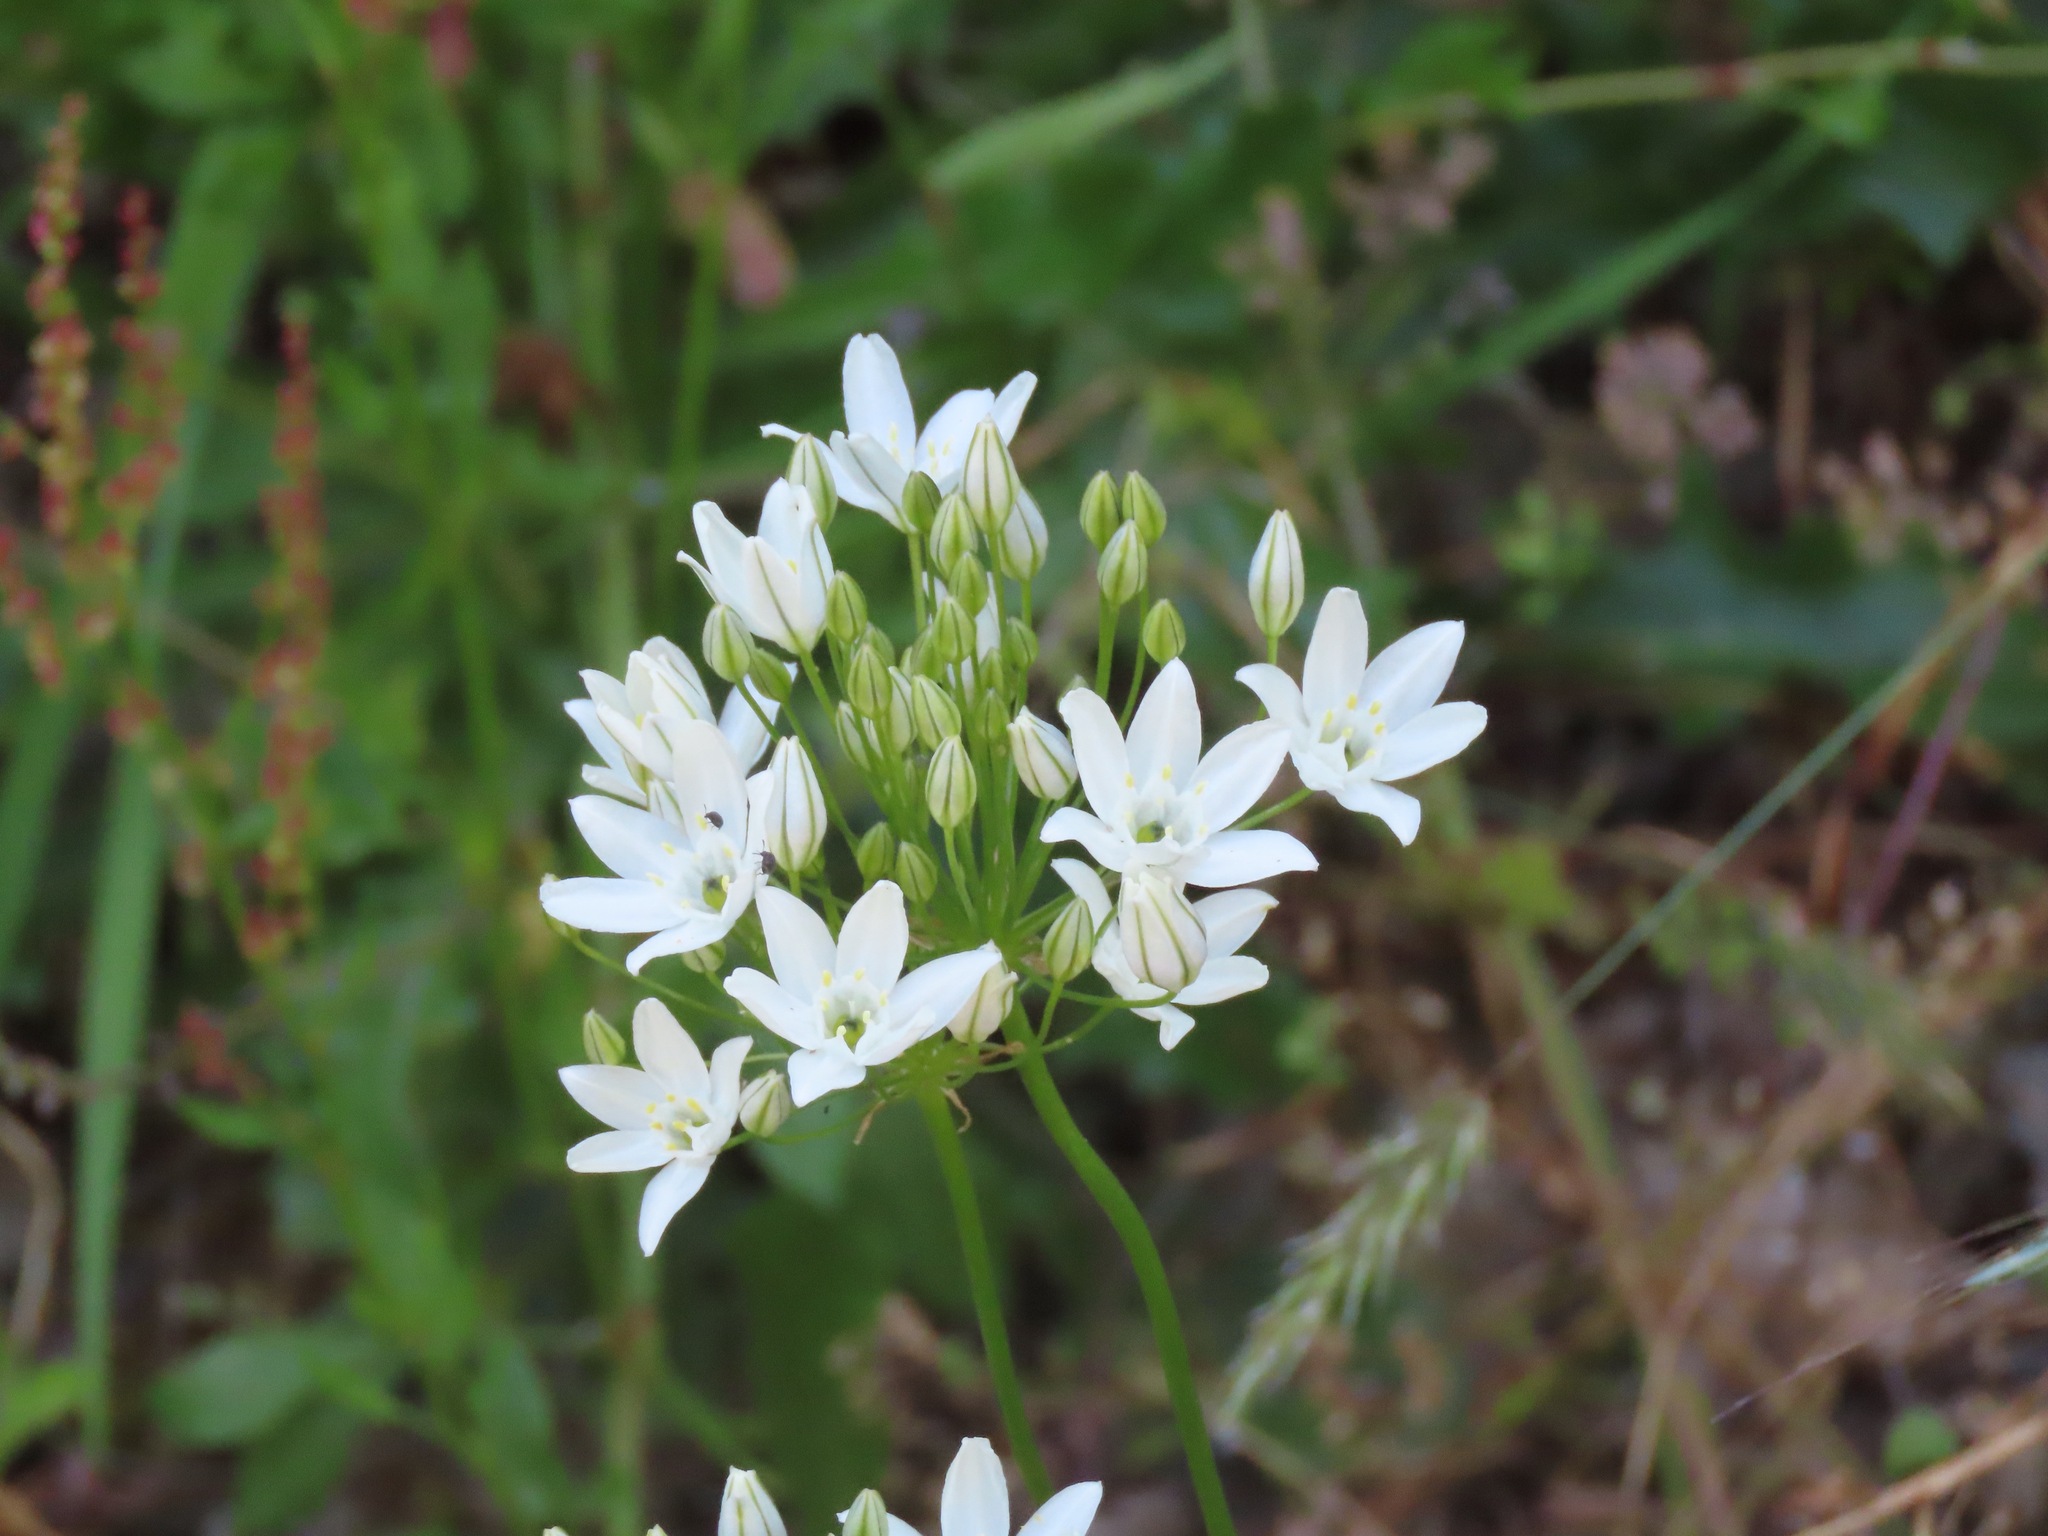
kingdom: Plantae
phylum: Tracheophyta
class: Liliopsida
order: Asparagales
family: Asparagaceae
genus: Triteleia
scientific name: Triteleia hyacinthina
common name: White brodiaea
